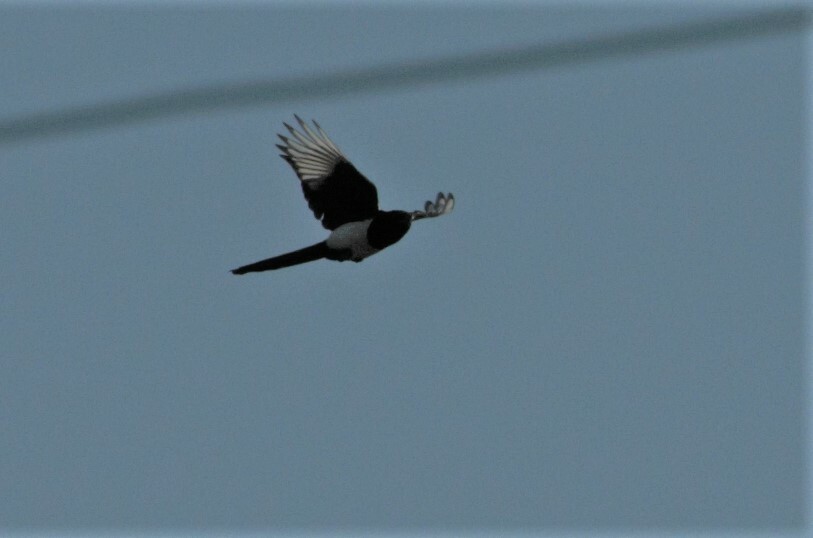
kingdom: Animalia
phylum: Chordata
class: Aves
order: Passeriformes
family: Corvidae
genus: Pica
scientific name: Pica pica
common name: Eurasian magpie
